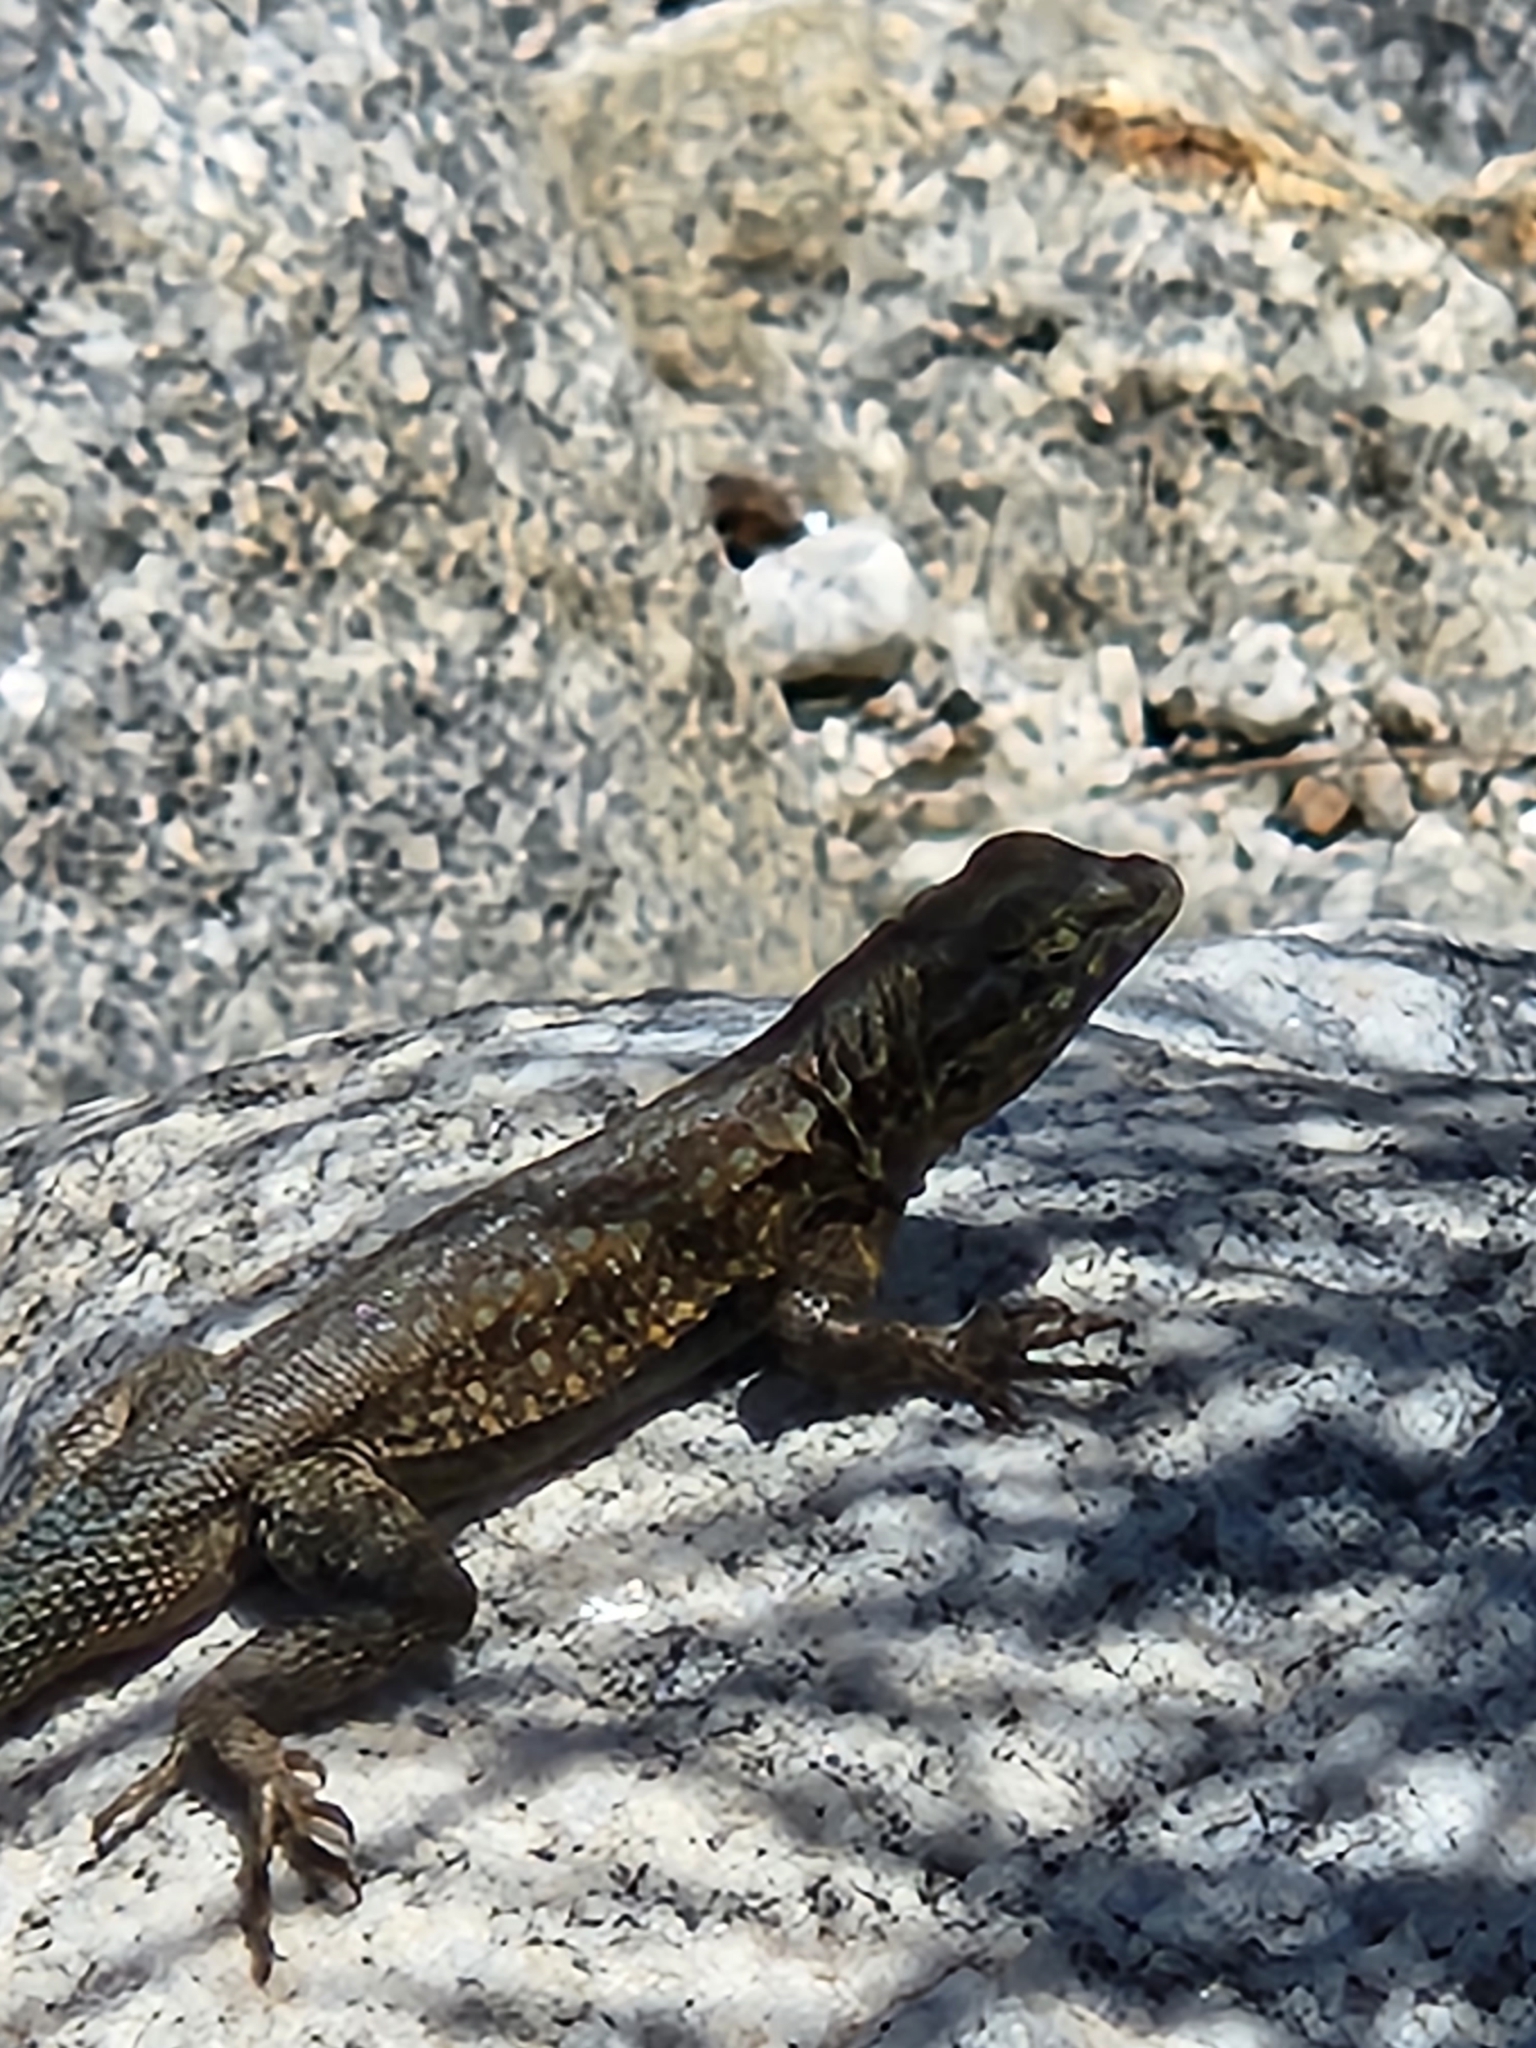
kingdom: Animalia
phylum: Chordata
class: Squamata
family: Phrynosomatidae
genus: Uta
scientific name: Uta stansburiana
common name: Side-blotched lizard
